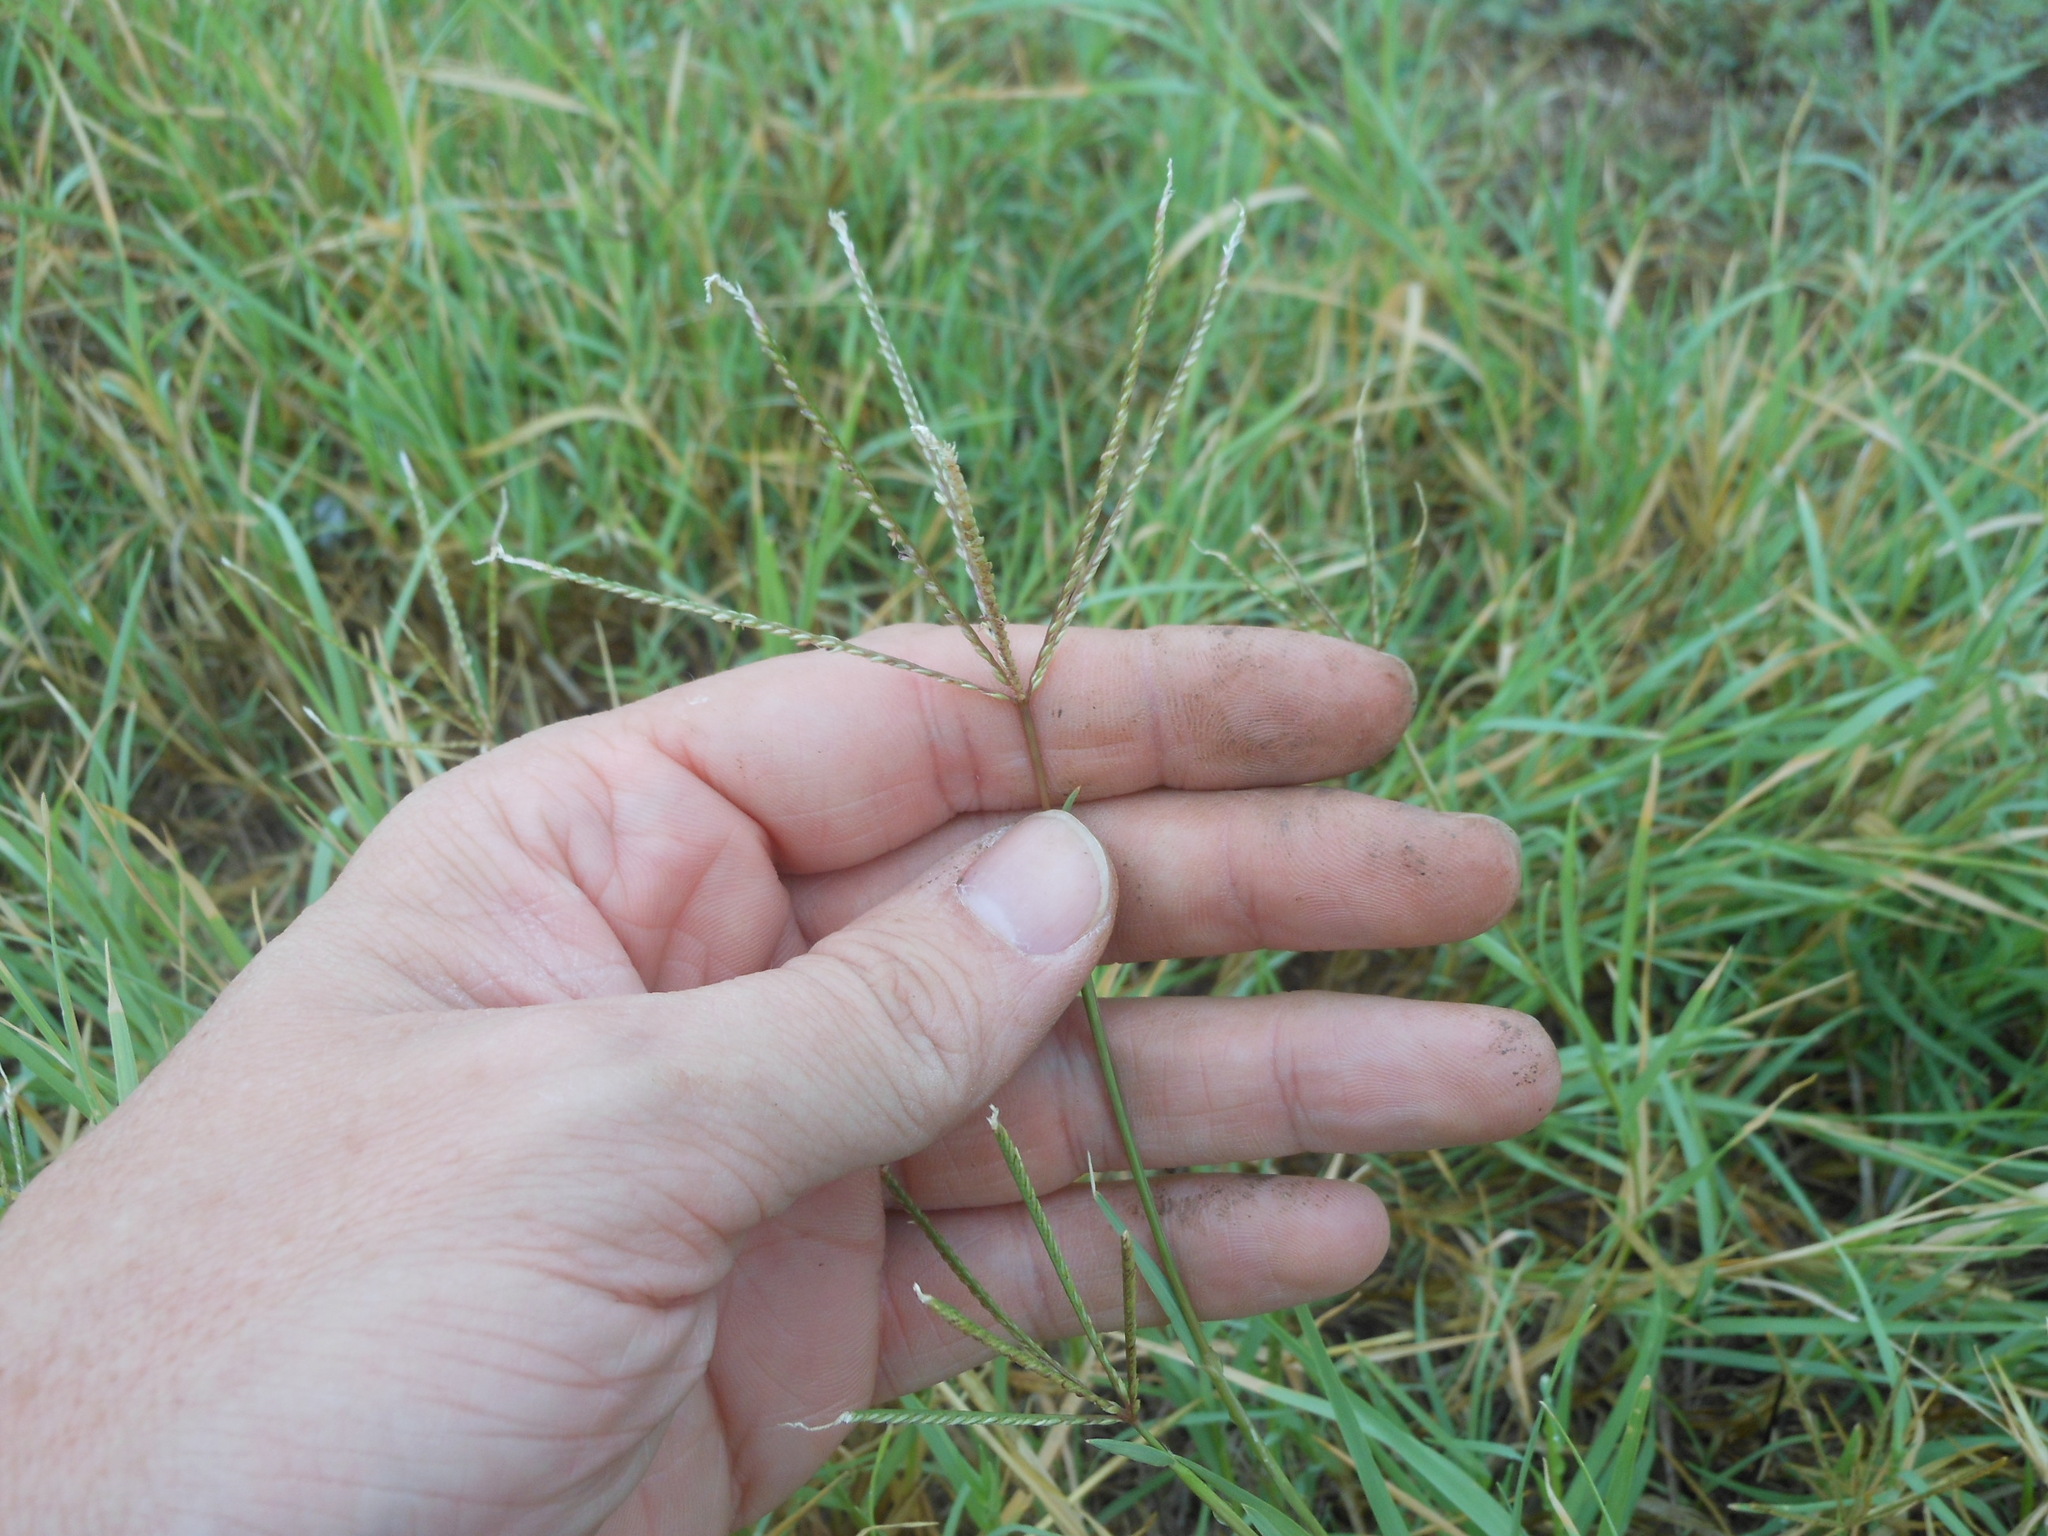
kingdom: Plantae
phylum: Tracheophyta
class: Liliopsida
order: Poales
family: Poaceae
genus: Cynodon
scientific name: Cynodon dactylon
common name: Bermuda grass
